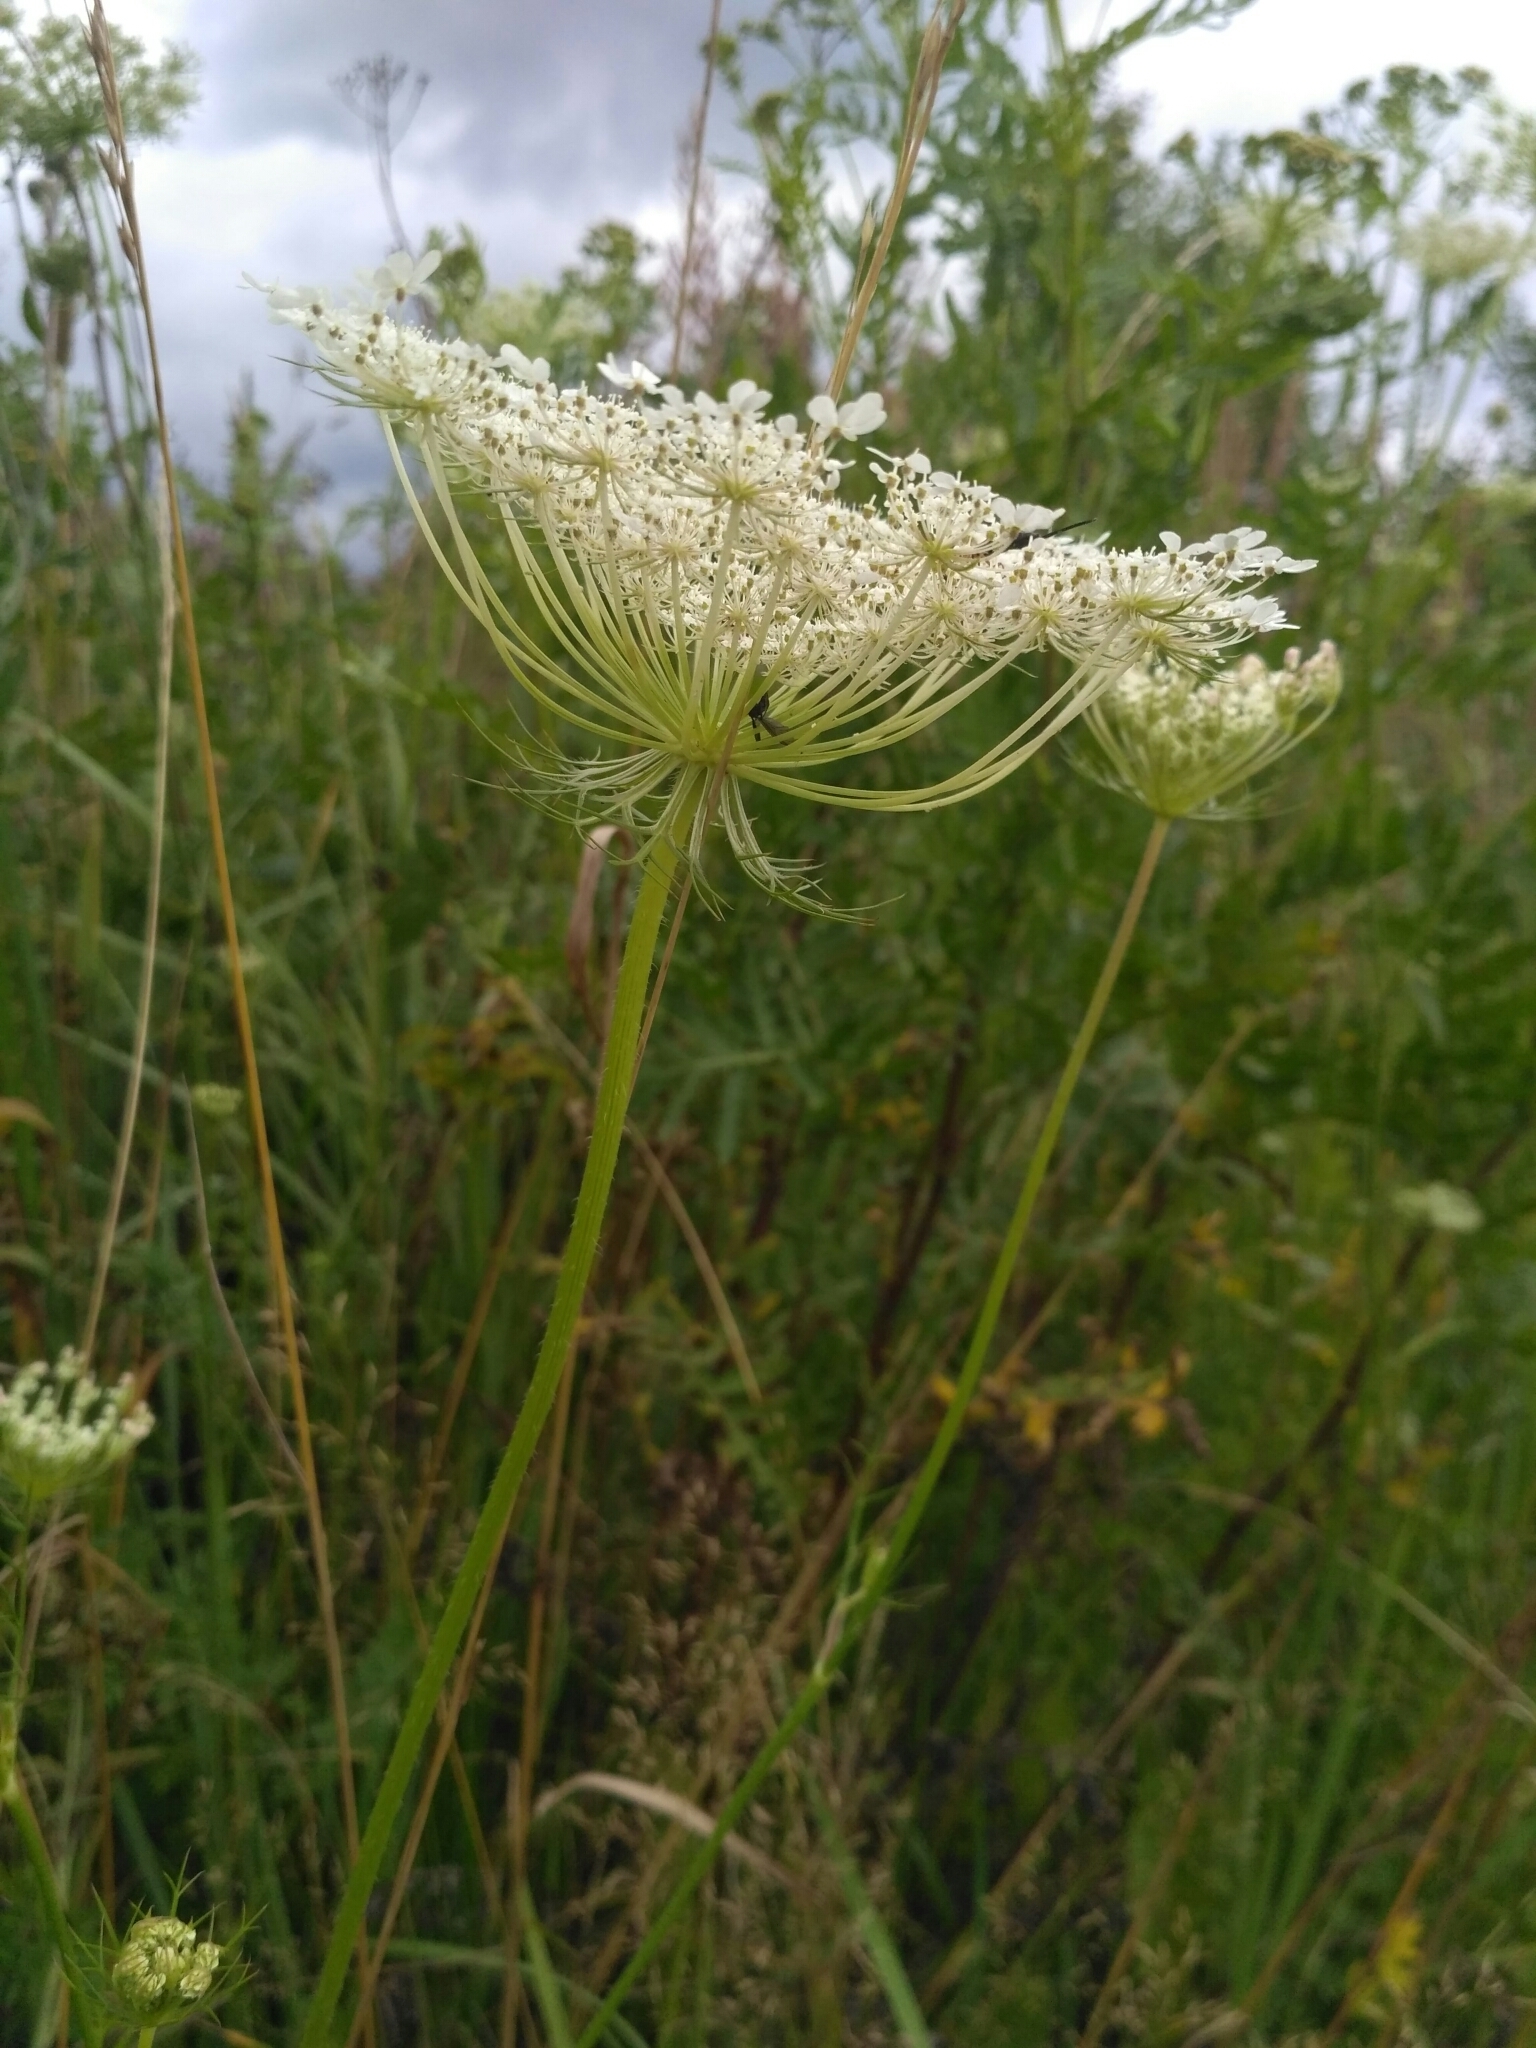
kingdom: Plantae
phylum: Tracheophyta
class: Magnoliopsida
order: Apiales
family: Apiaceae
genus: Daucus
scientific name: Daucus carota
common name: Wild carrot
